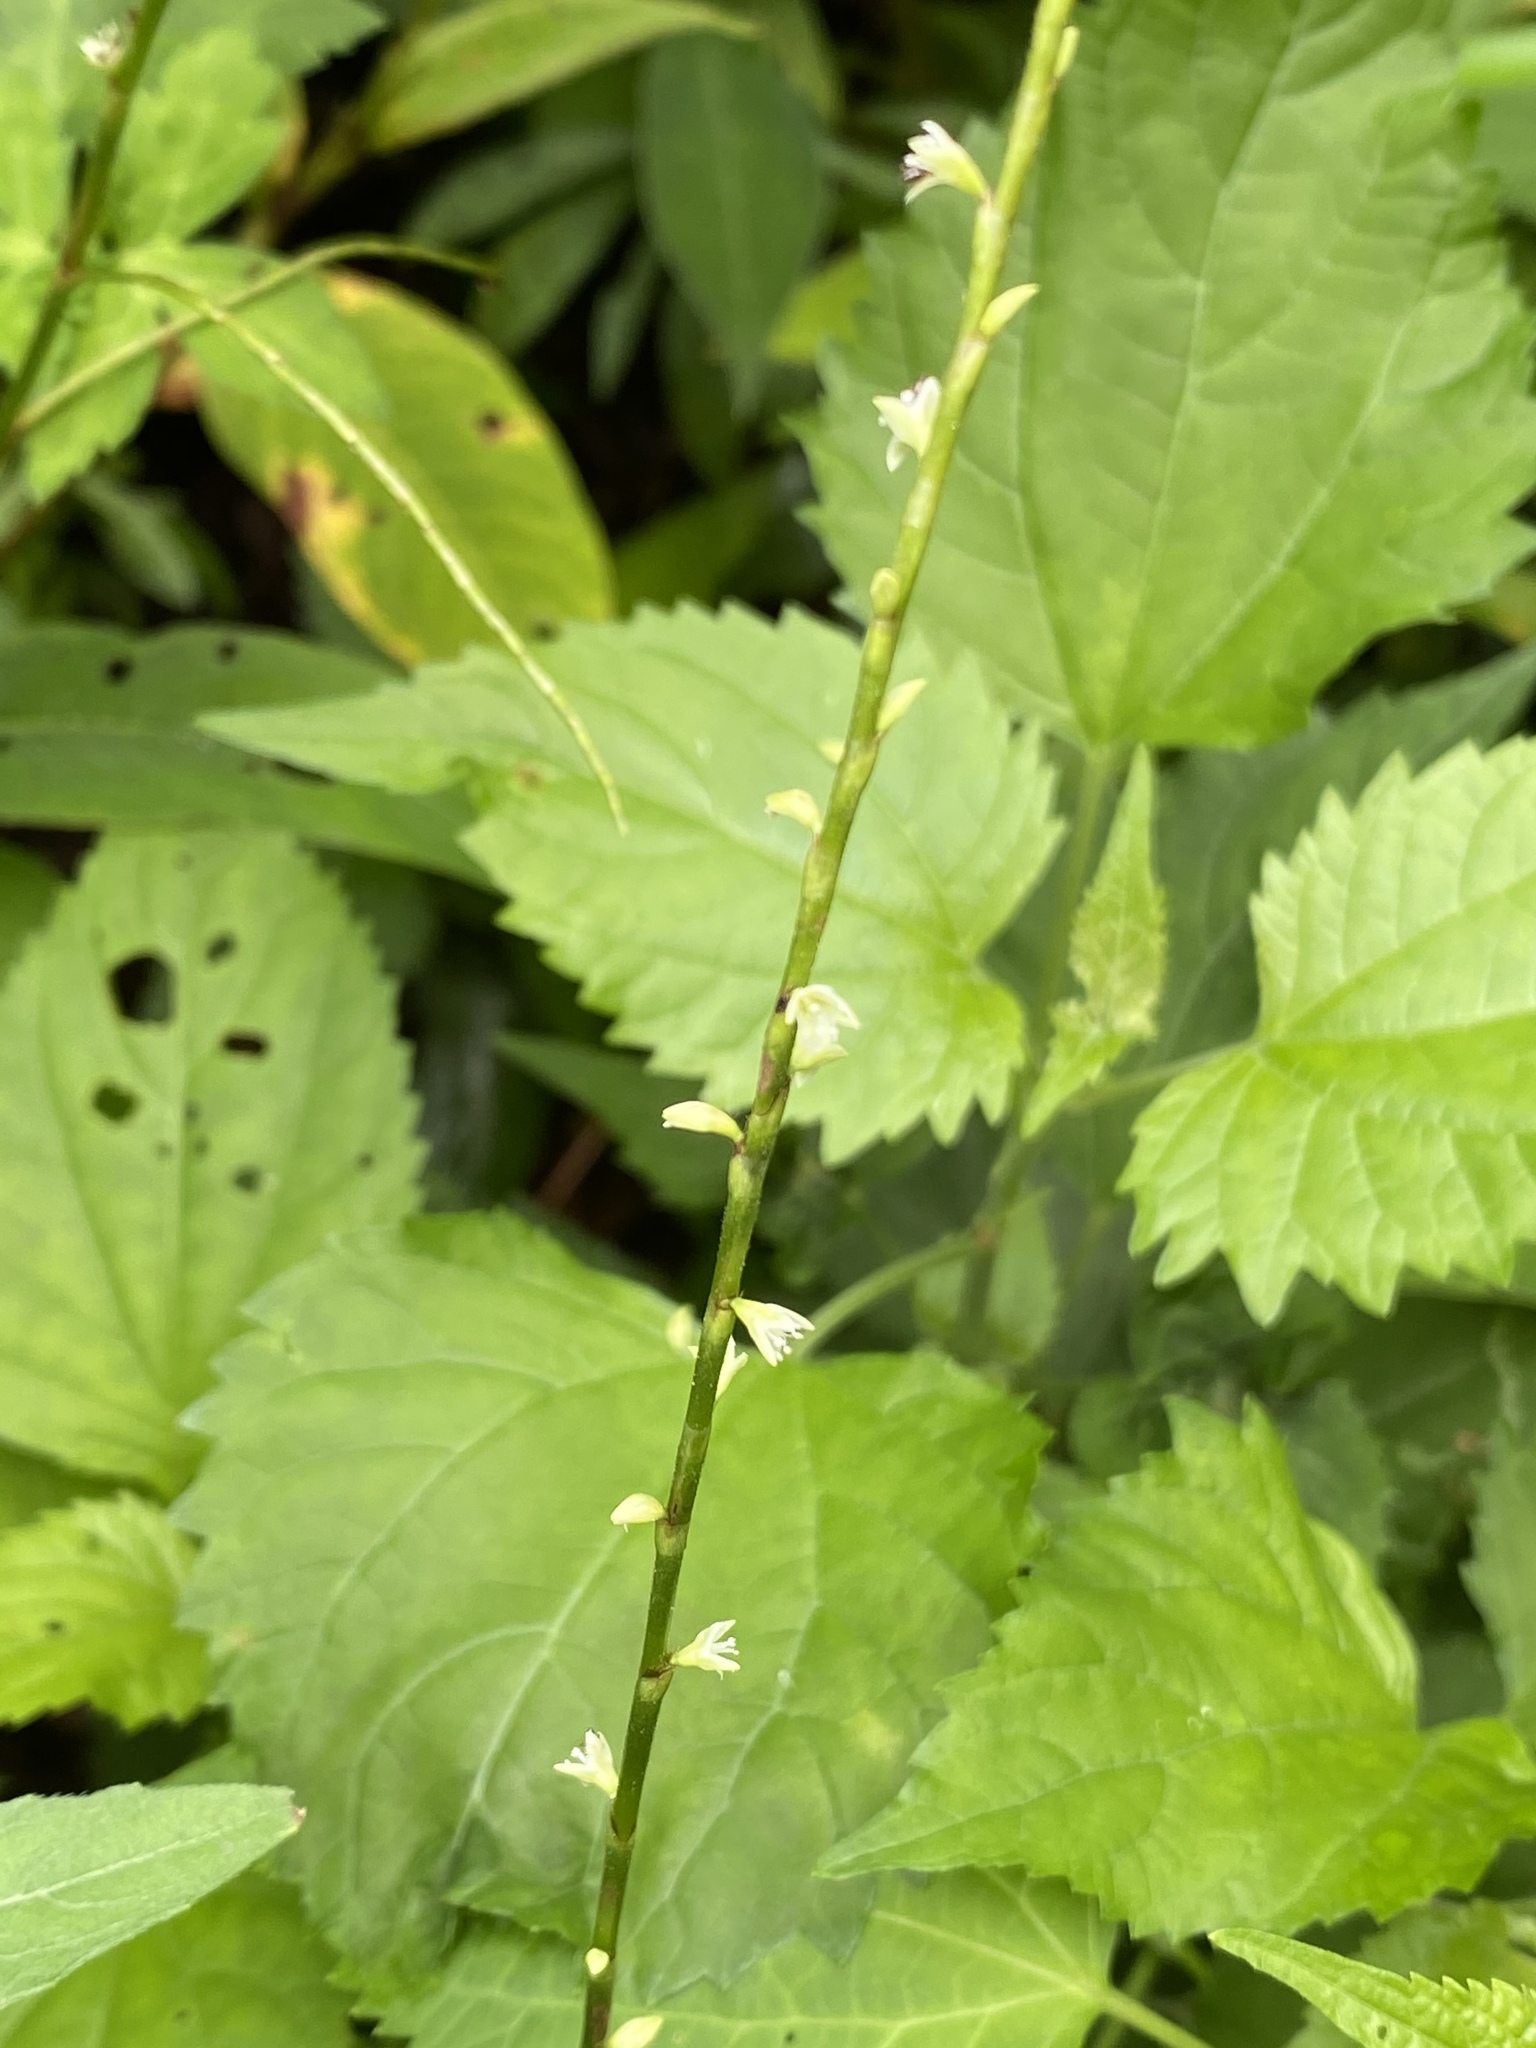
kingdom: Plantae
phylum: Tracheophyta
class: Magnoliopsida
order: Caryophyllales
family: Polygonaceae
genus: Persicaria
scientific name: Persicaria virginiana
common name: Jumpseed
